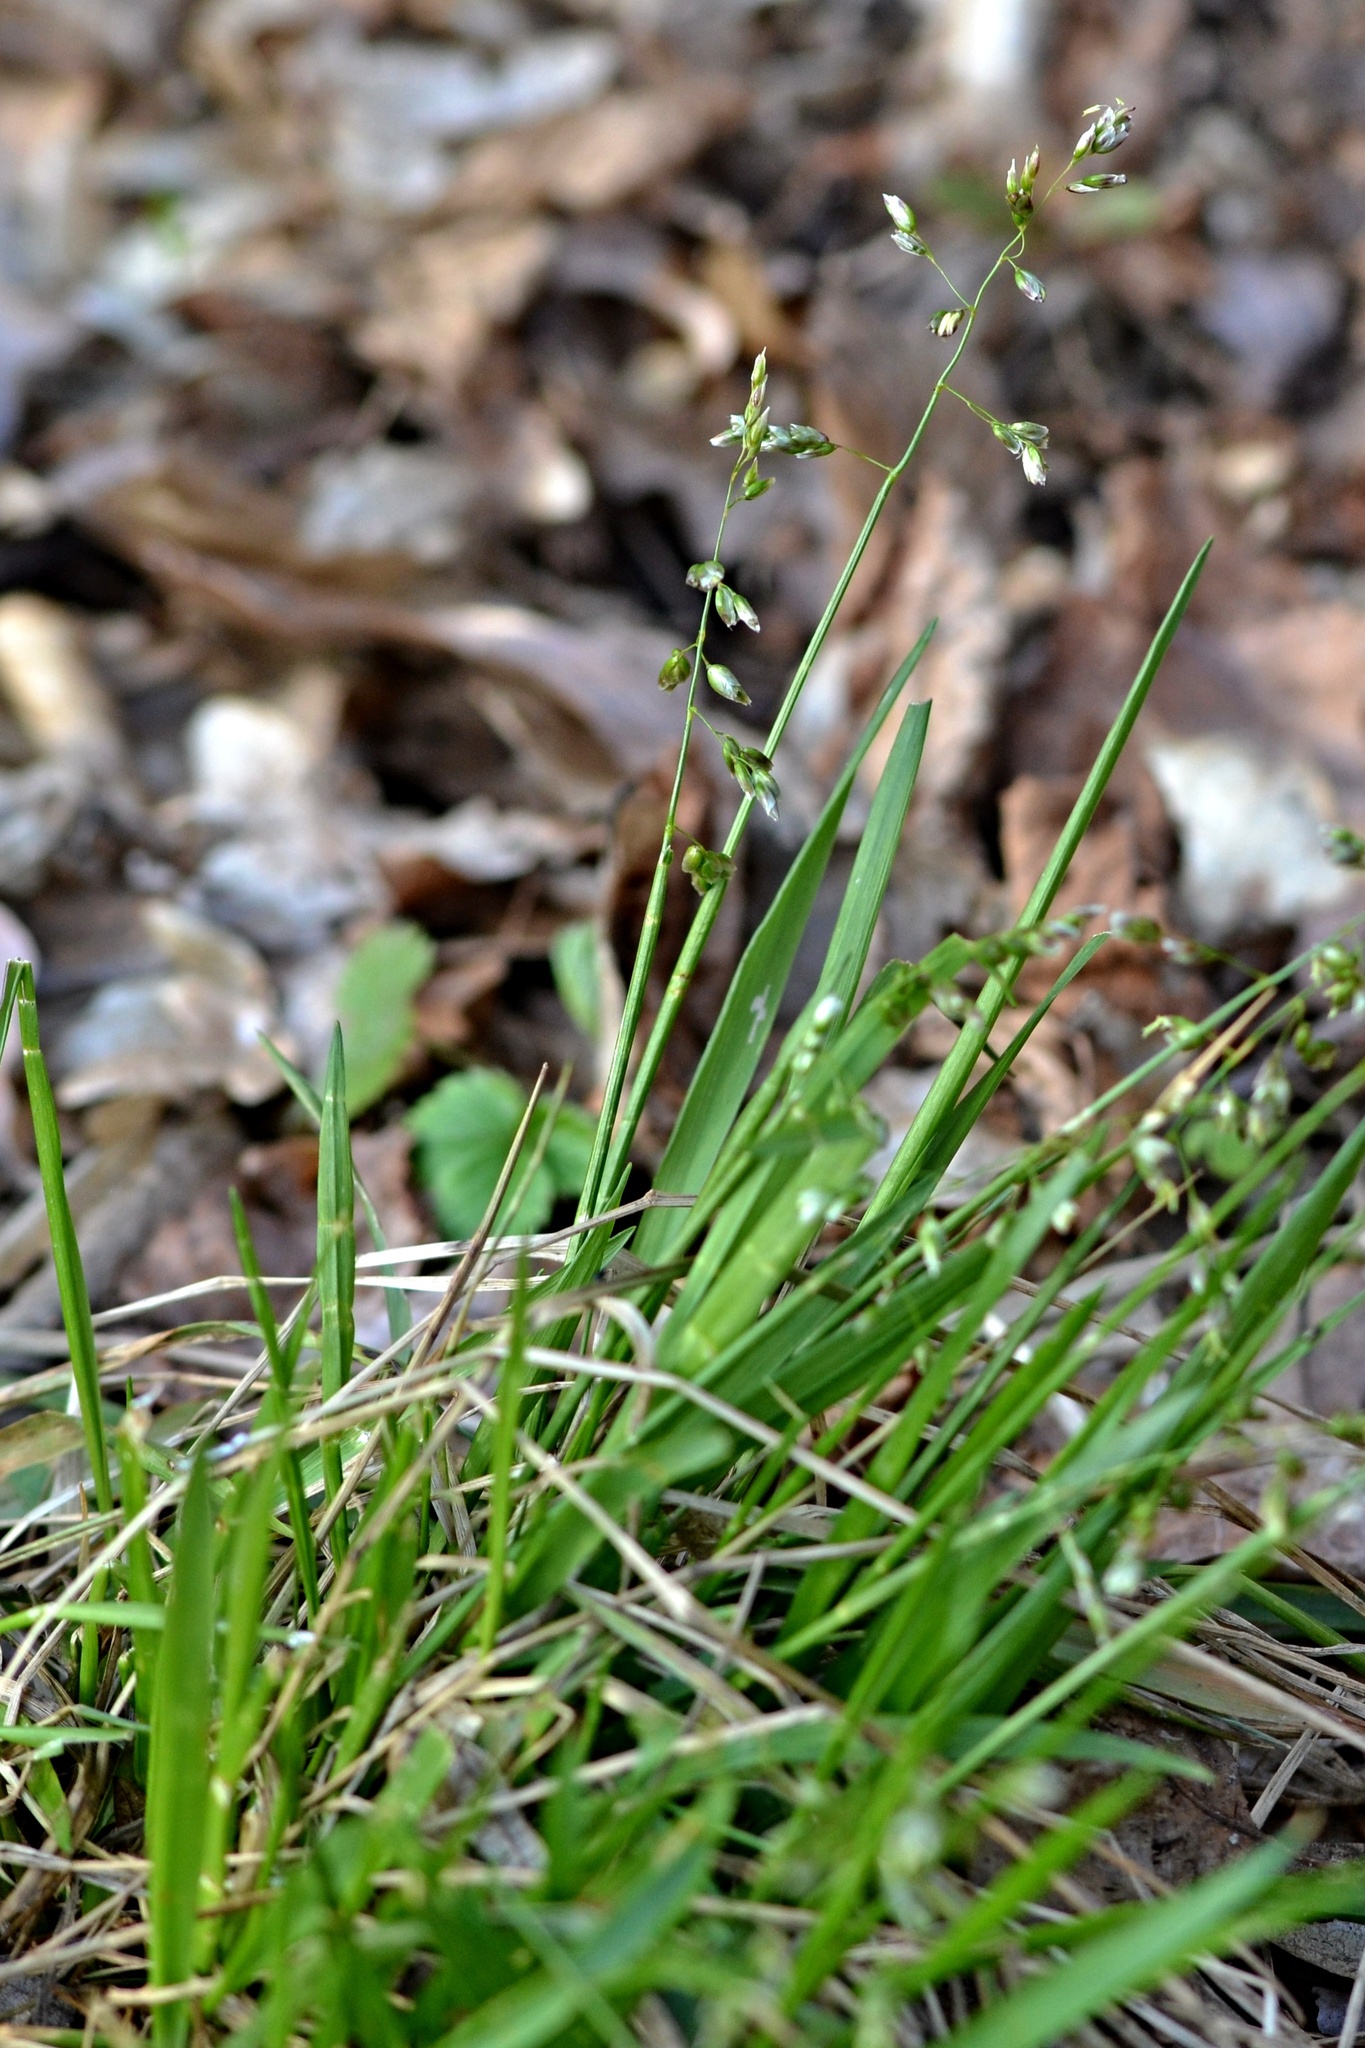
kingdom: Plantae
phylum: Tracheophyta
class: Liliopsida
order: Poales
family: Poaceae
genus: Anthoxanthum
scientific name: Anthoxanthum australe
